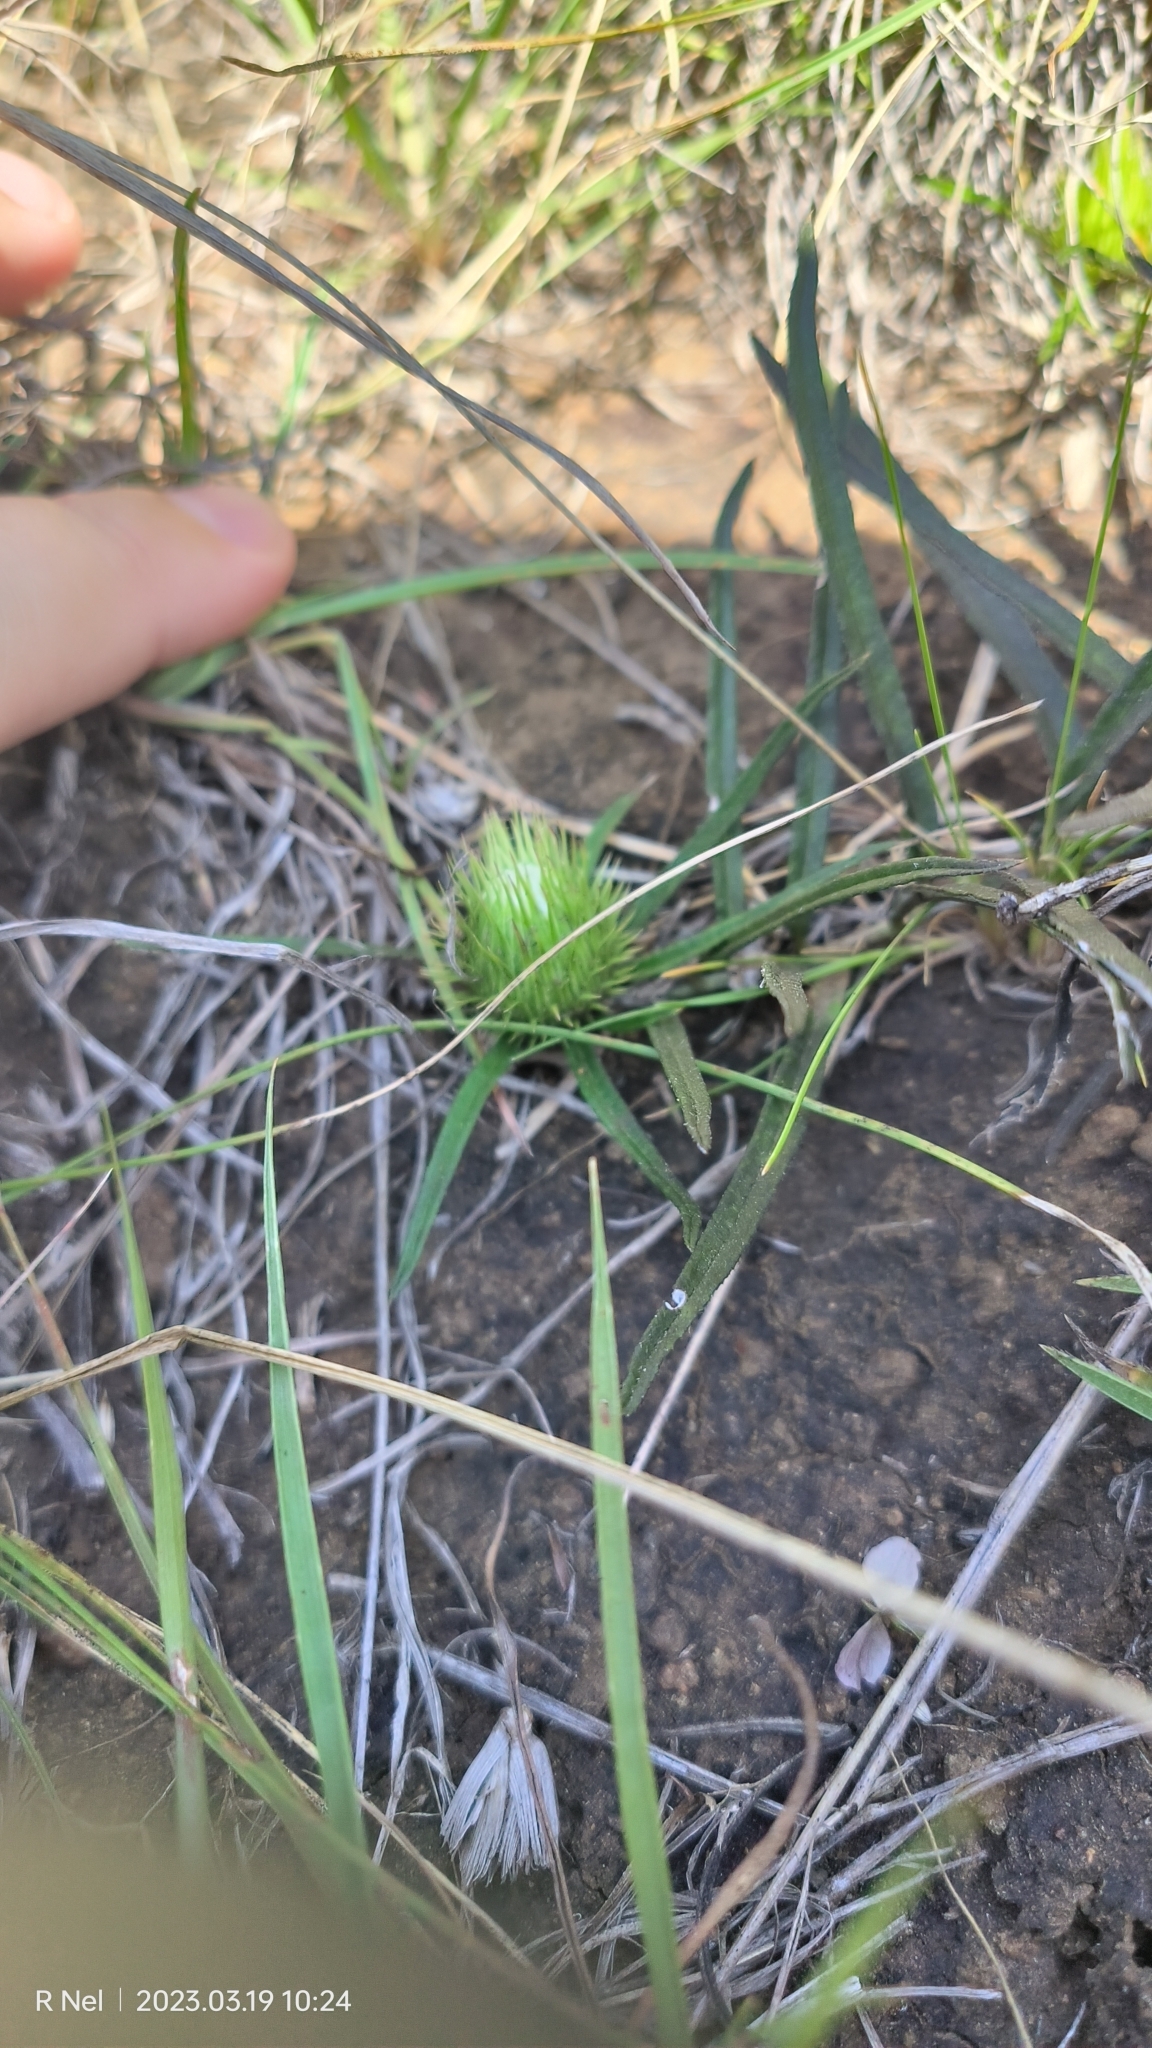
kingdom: Plantae
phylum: Tracheophyta
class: Magnoliopsida
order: Asterales
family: Asteraceae
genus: Dicoma
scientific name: Dicoma anomala
